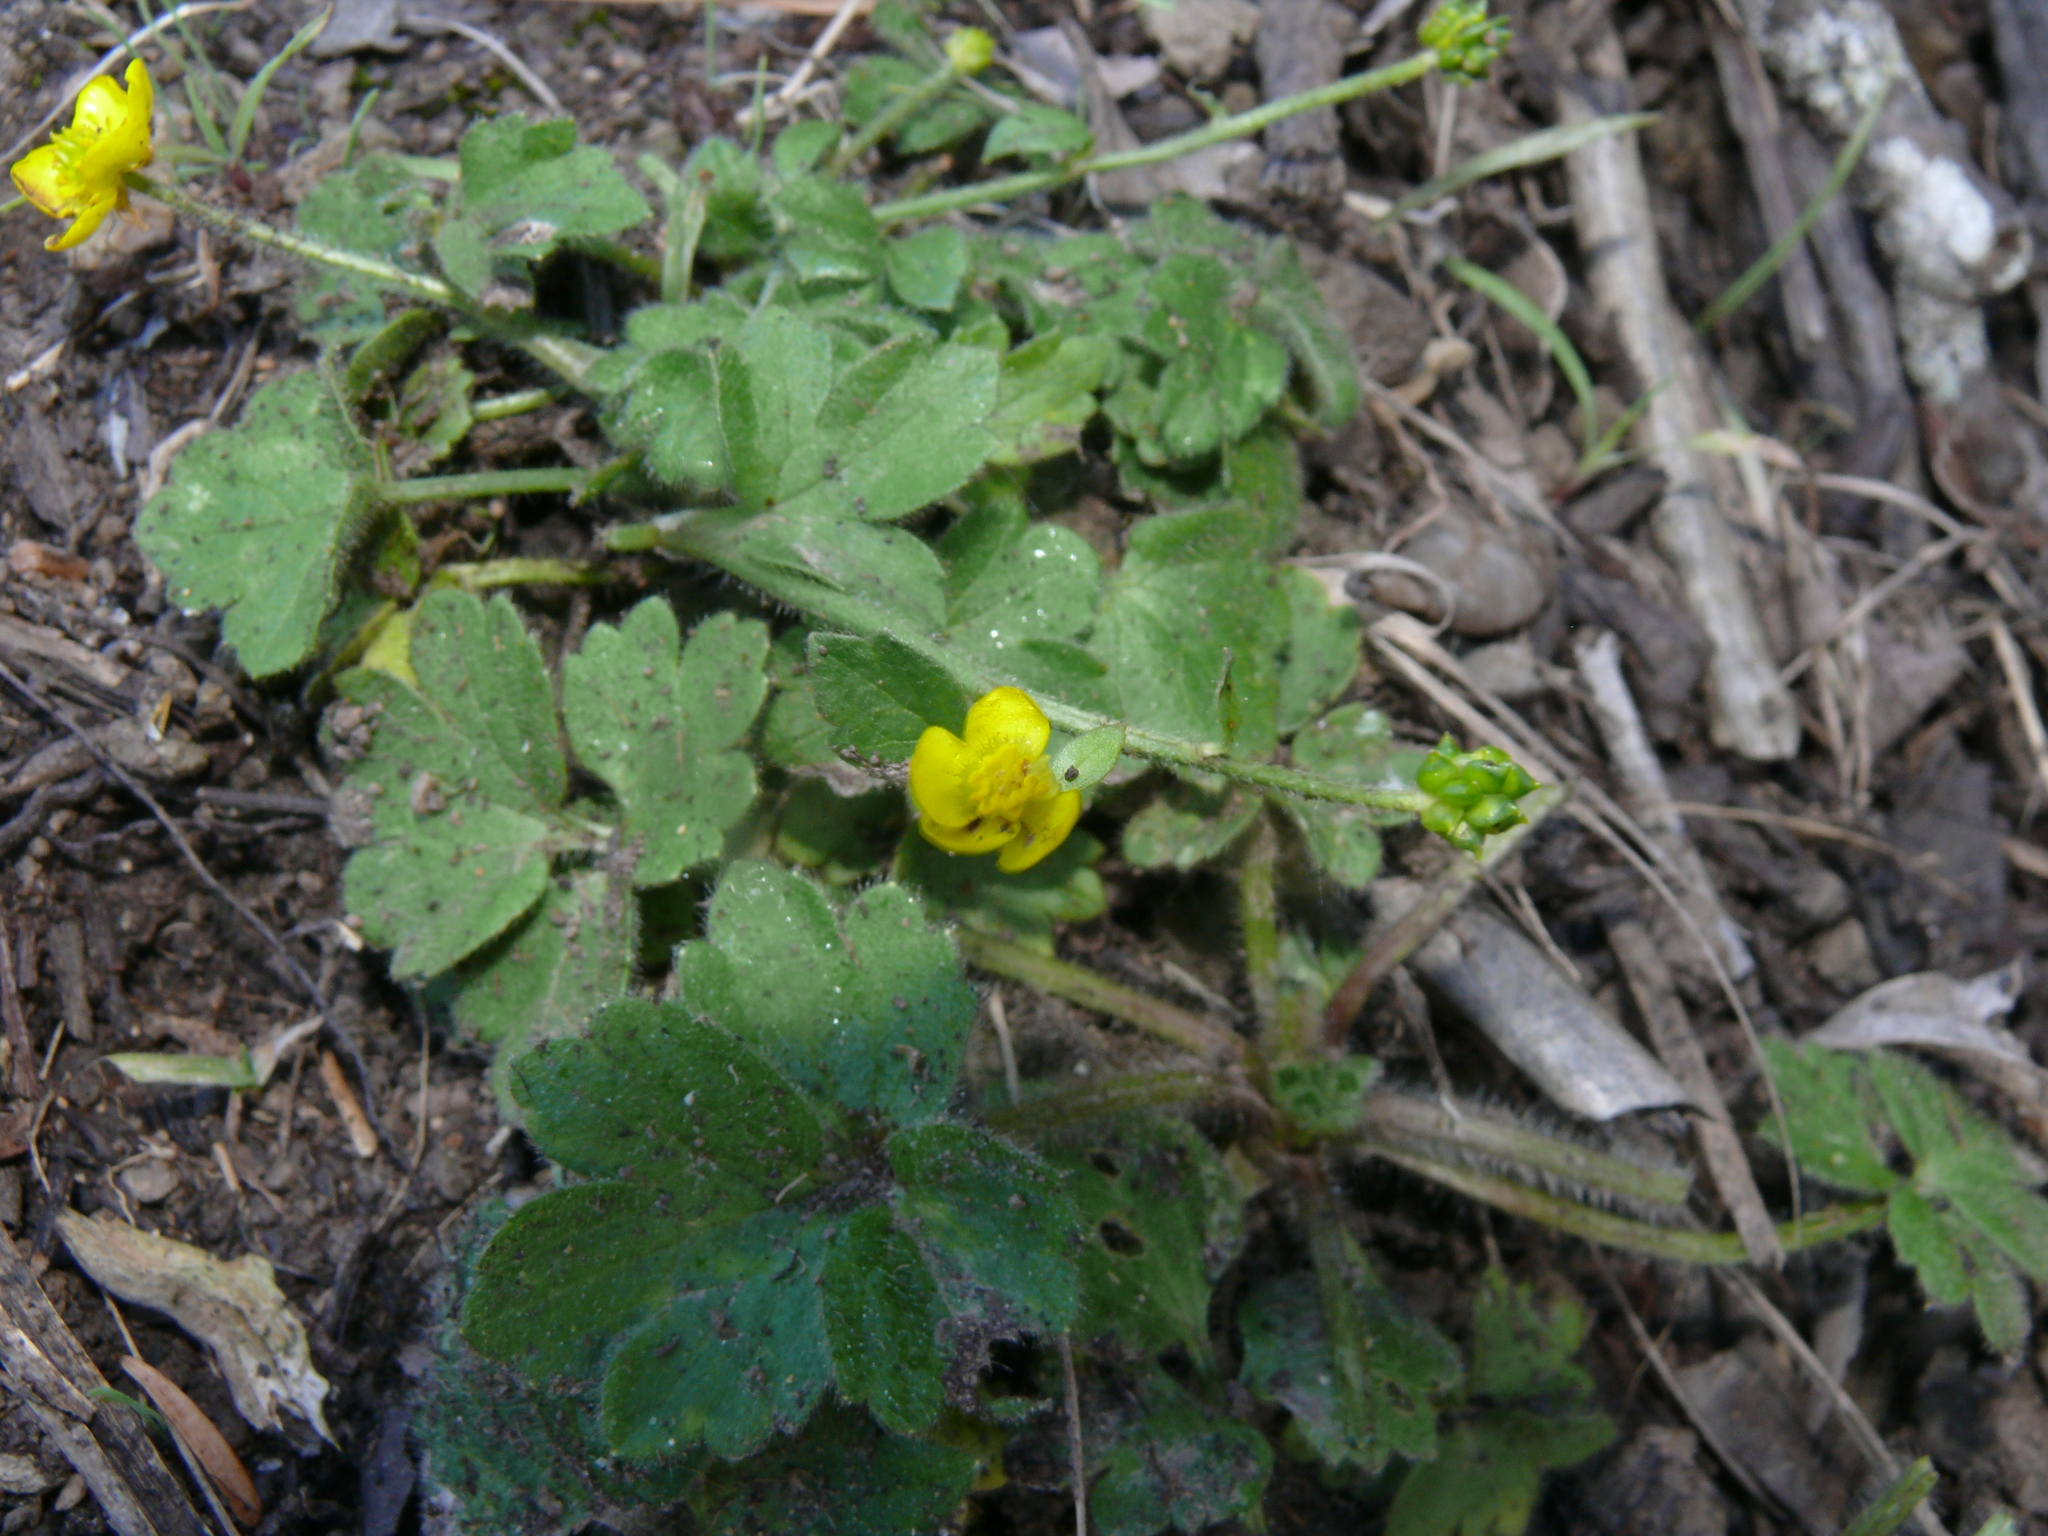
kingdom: Plantae
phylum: Tracheophyta
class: Magnoliopsida
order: Ranunculales
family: Ranunculaceae
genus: Ranunculus
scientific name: Ranunculus multifidus
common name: Wild buttercup
